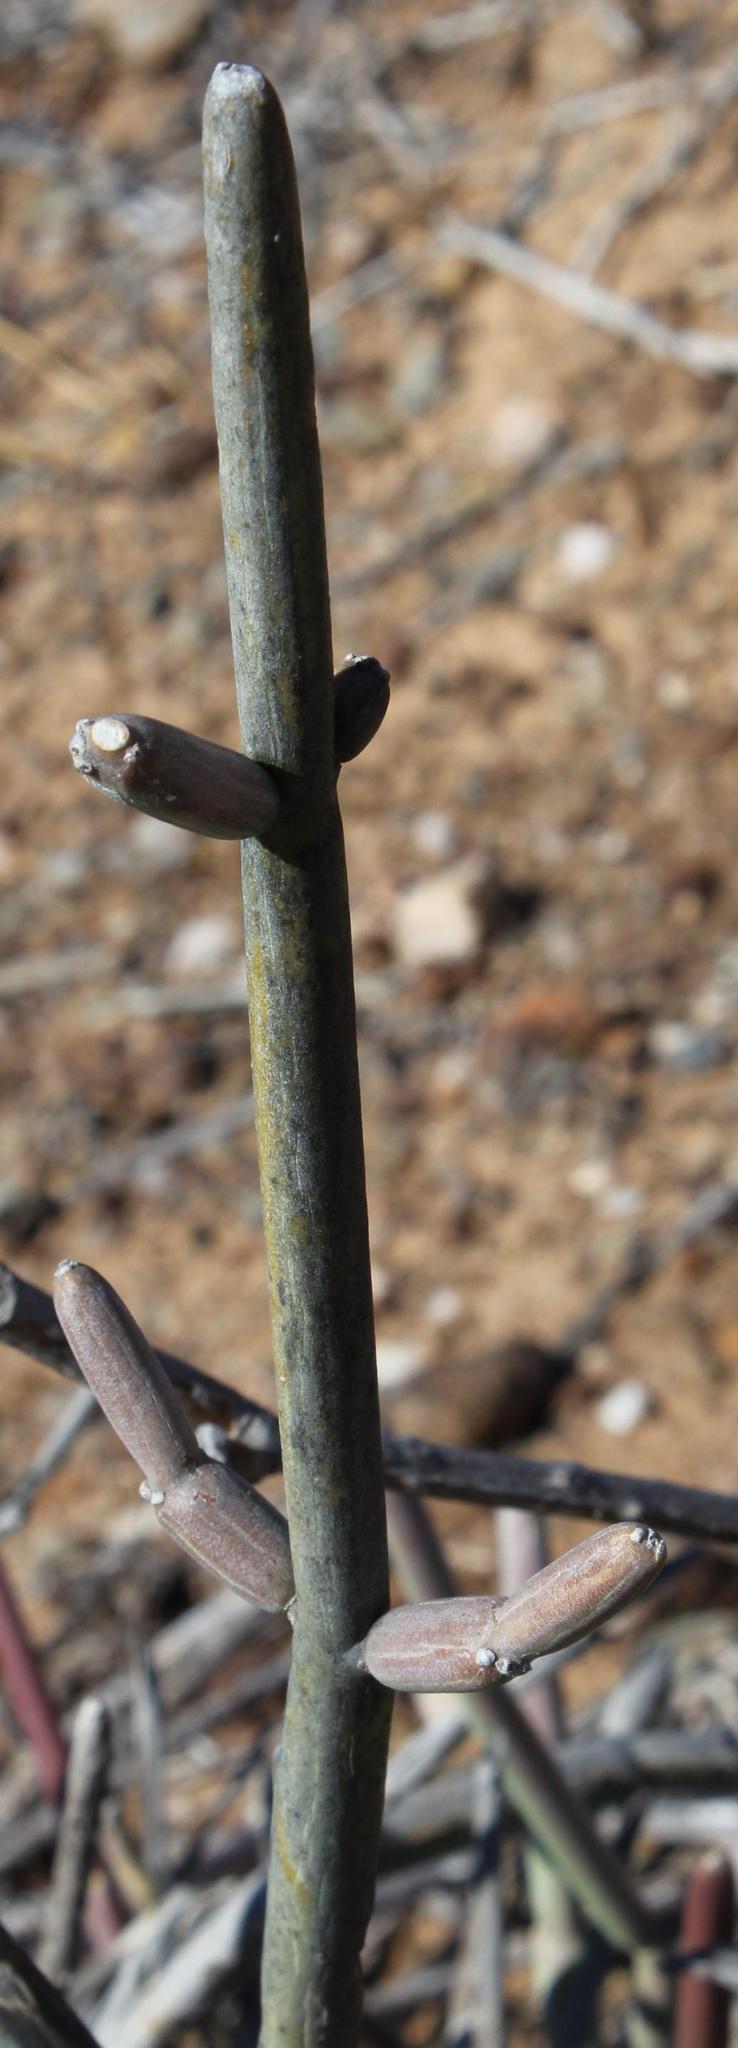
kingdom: Plantae
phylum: Tracheophyta
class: Magnoliopsida
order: Gentianales
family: Apocynaceae
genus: Cynanchum
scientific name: Cynanchum viminale
